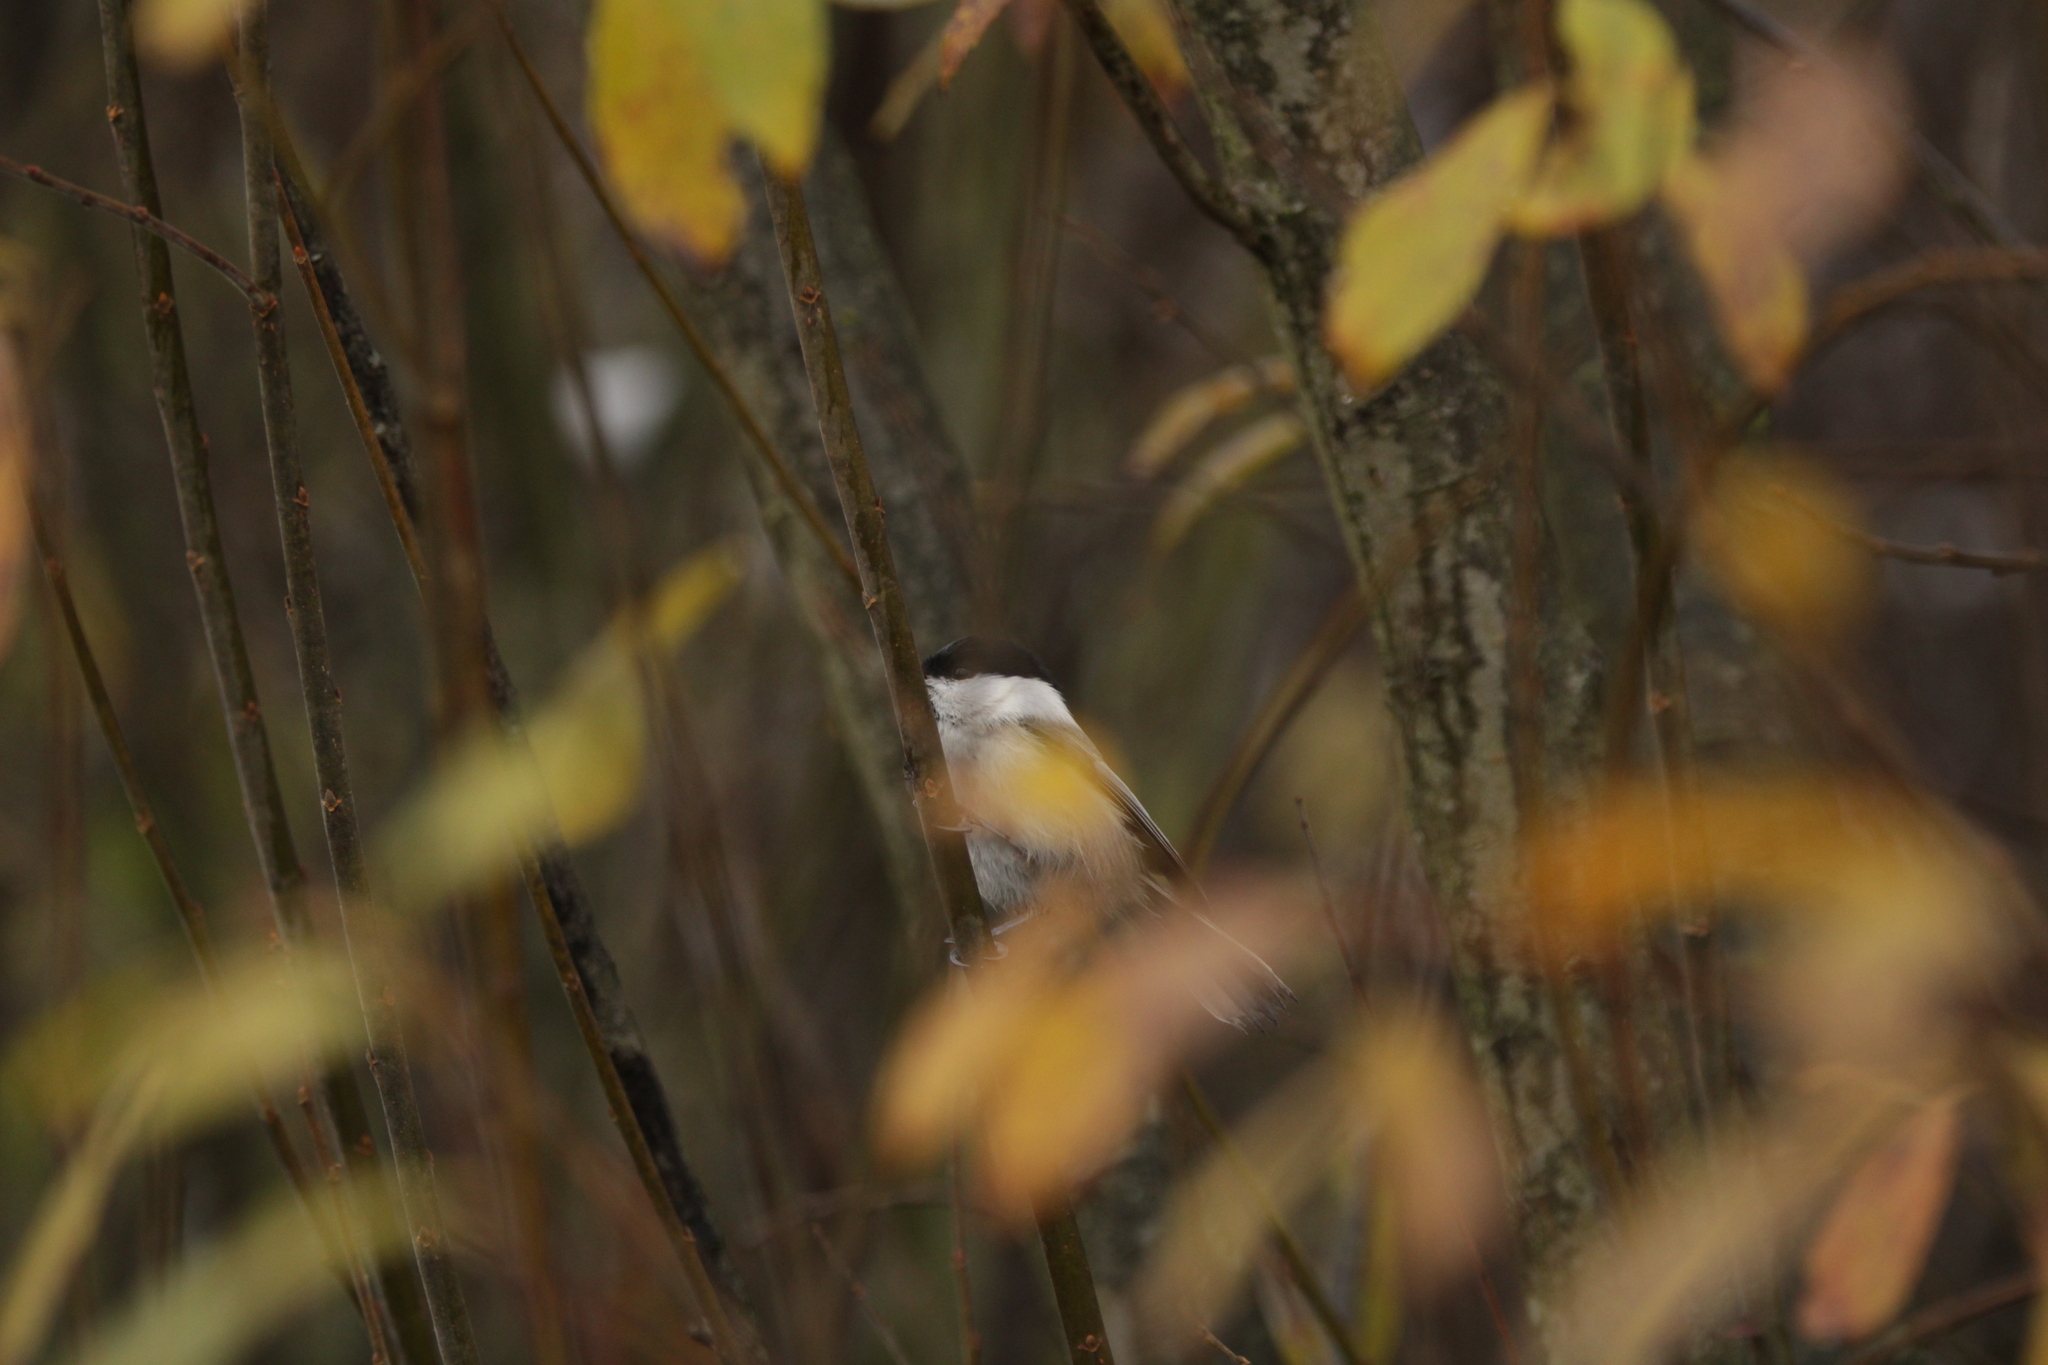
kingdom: Animalia
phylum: Chordata
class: Aves
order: Passeriformes
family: Paridae
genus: Poecile
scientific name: Poecile montanus
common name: Willow tit
